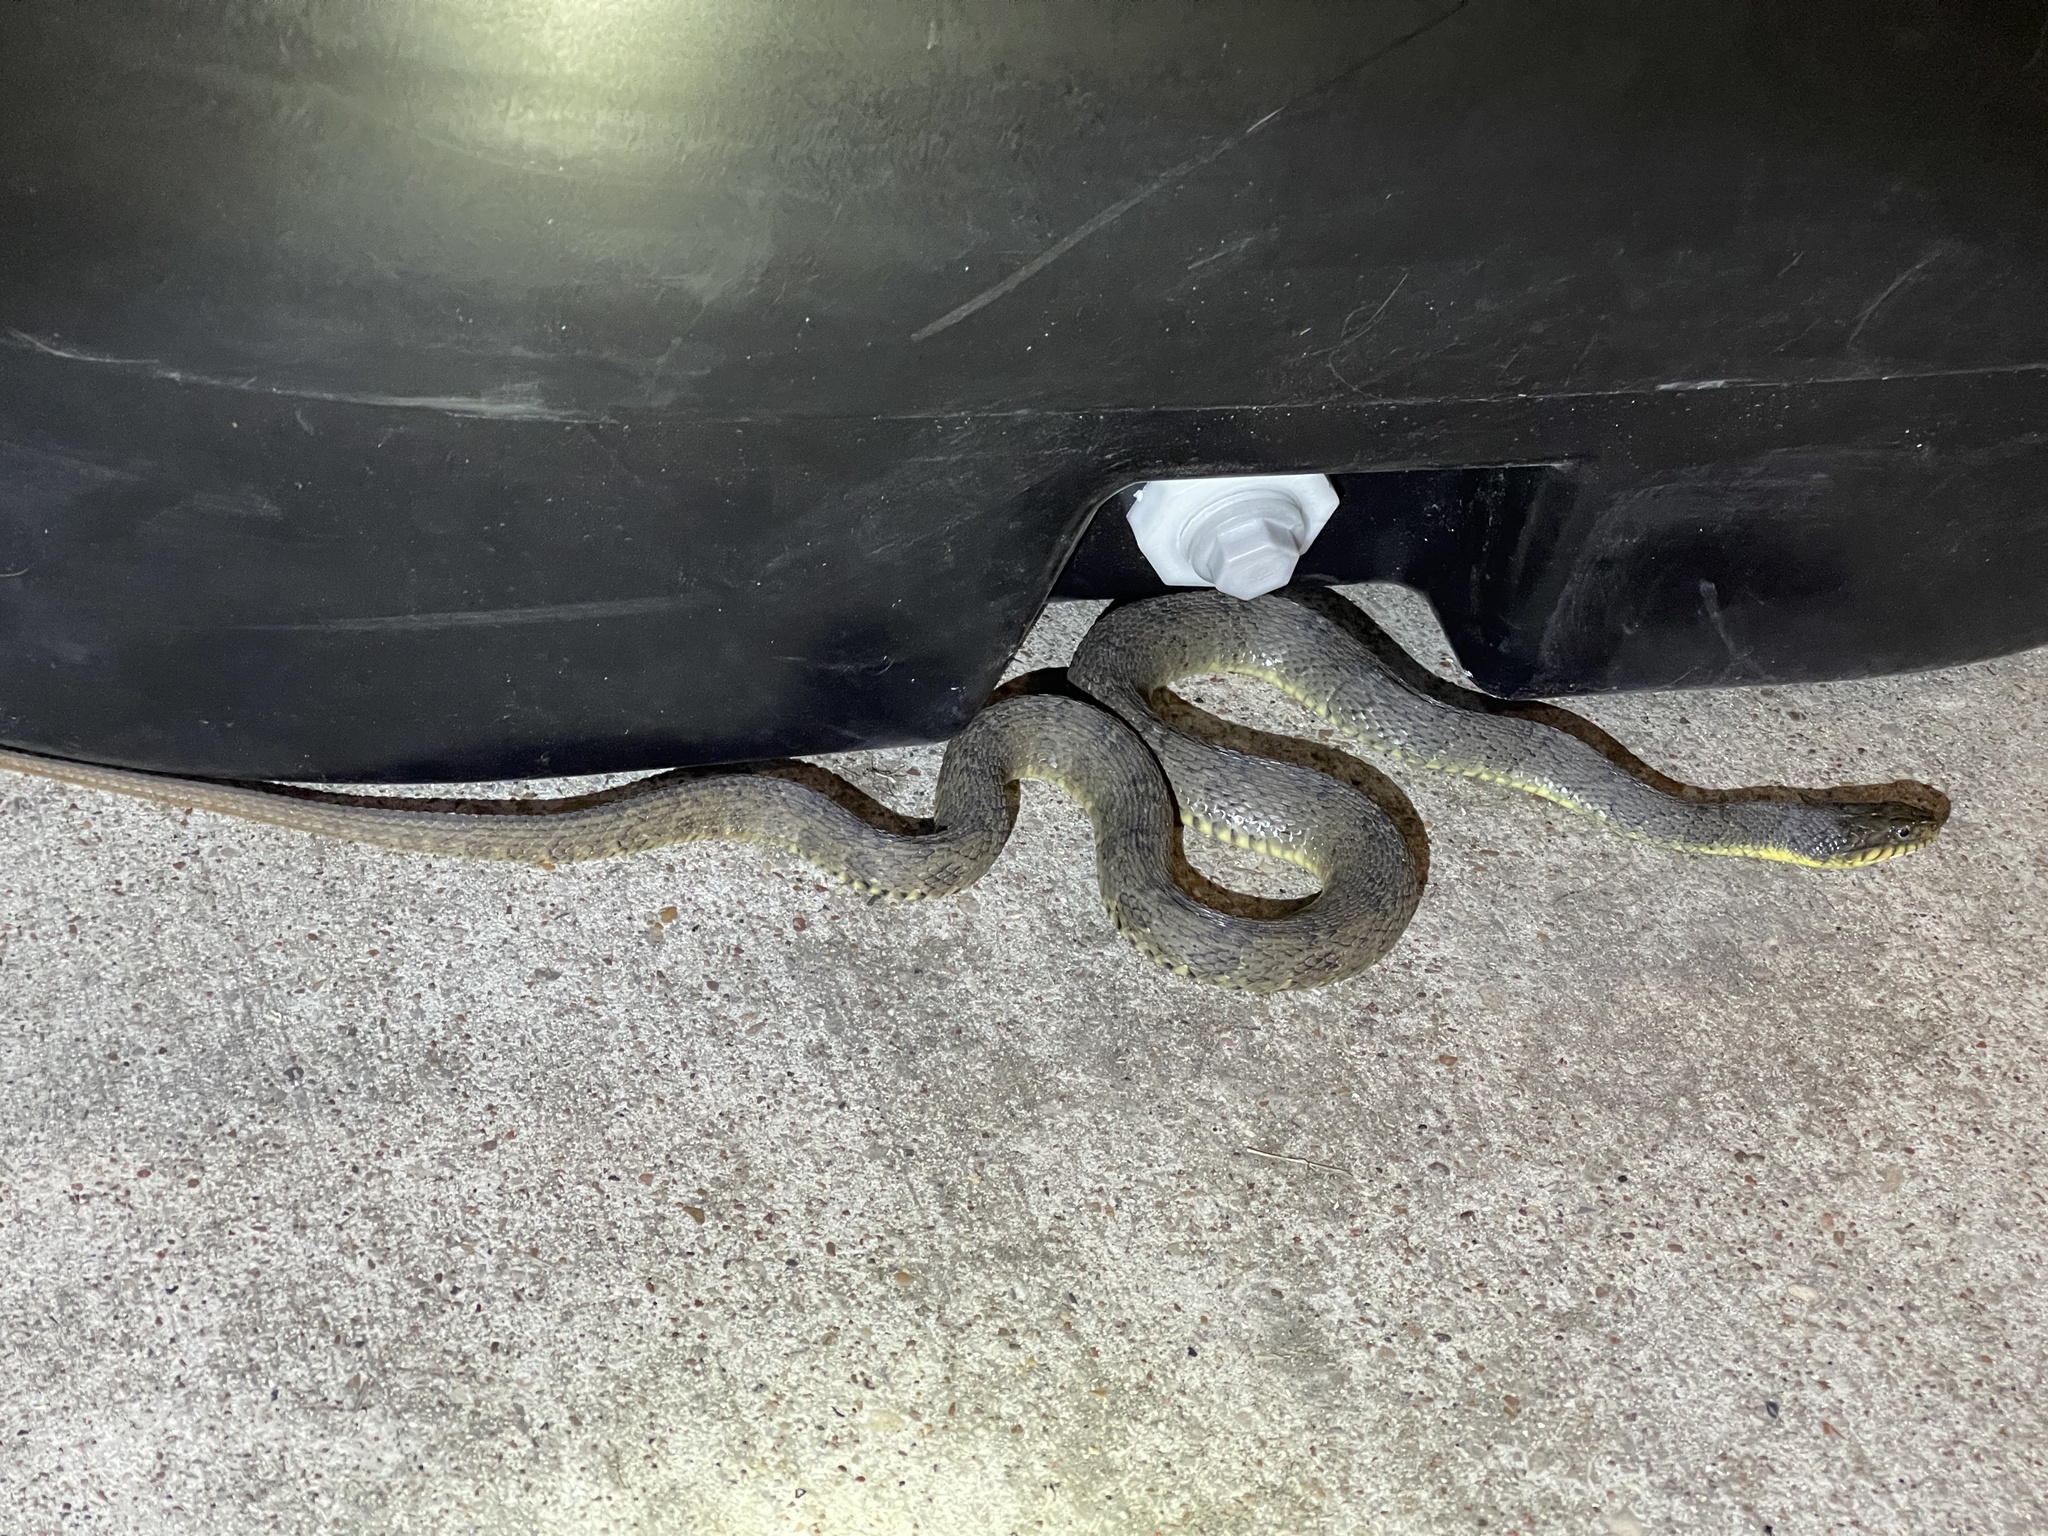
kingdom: Animalia
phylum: Chordata
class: Squamata
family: Colubridae
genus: Nerodia
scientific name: Nerodia erythrogaster
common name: Plainbelly water snake
